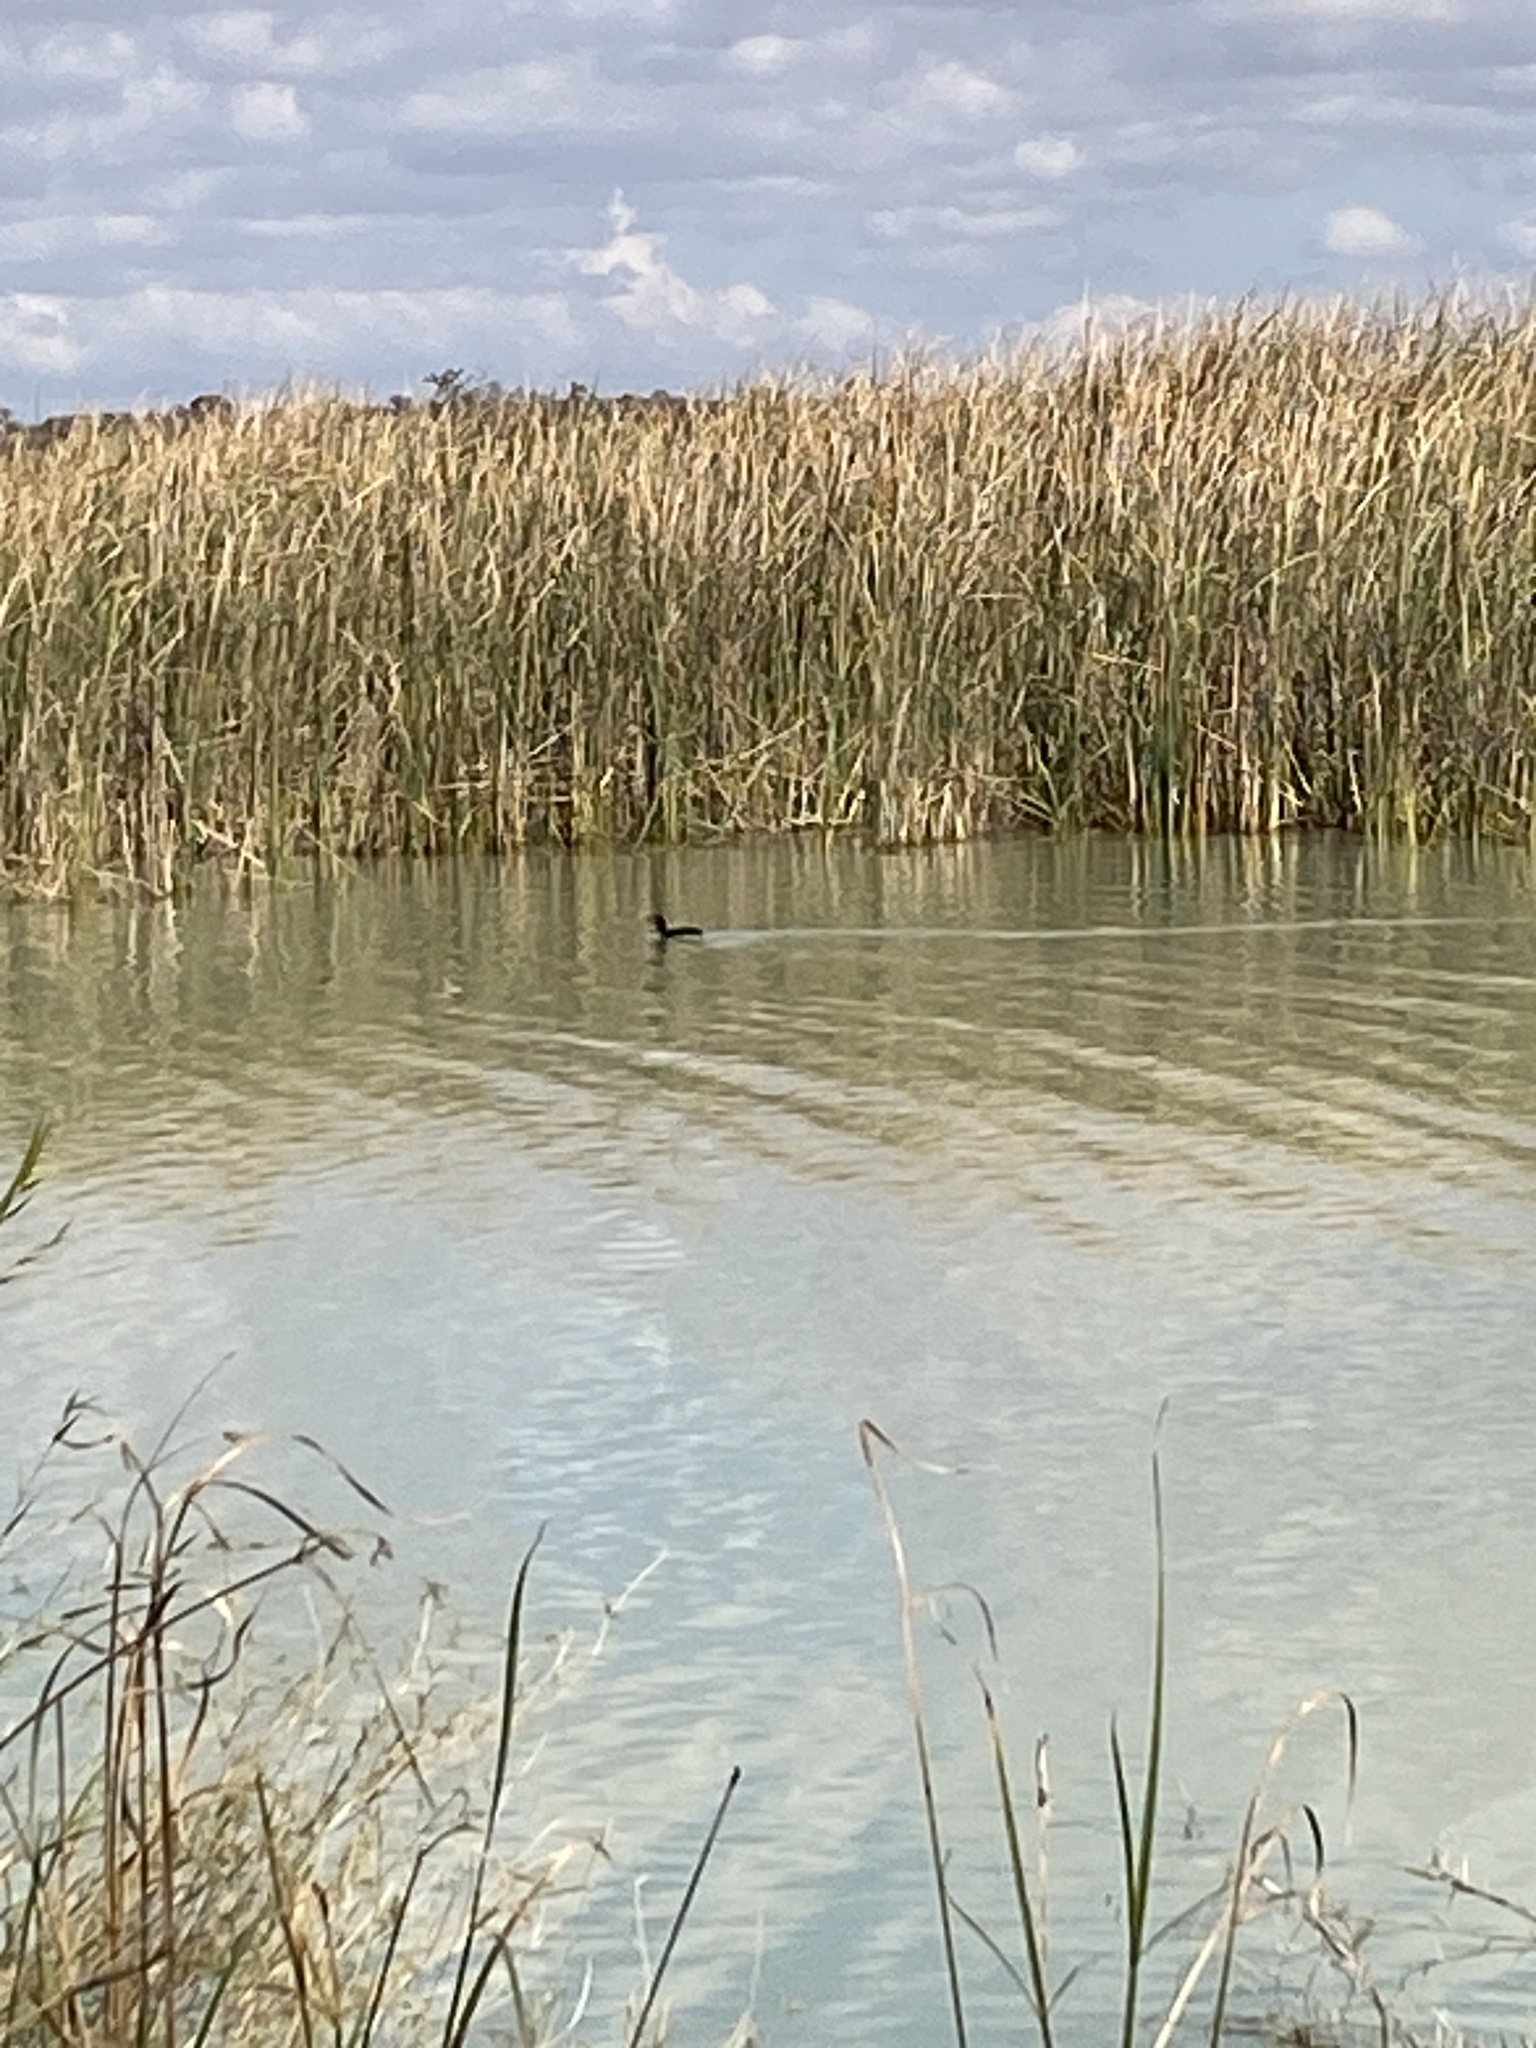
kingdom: Animalia
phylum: Chordata
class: Aves
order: Gruiformes
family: Rallidae
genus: Fulica
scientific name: Fulica cristata
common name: Red-knobbed coot
